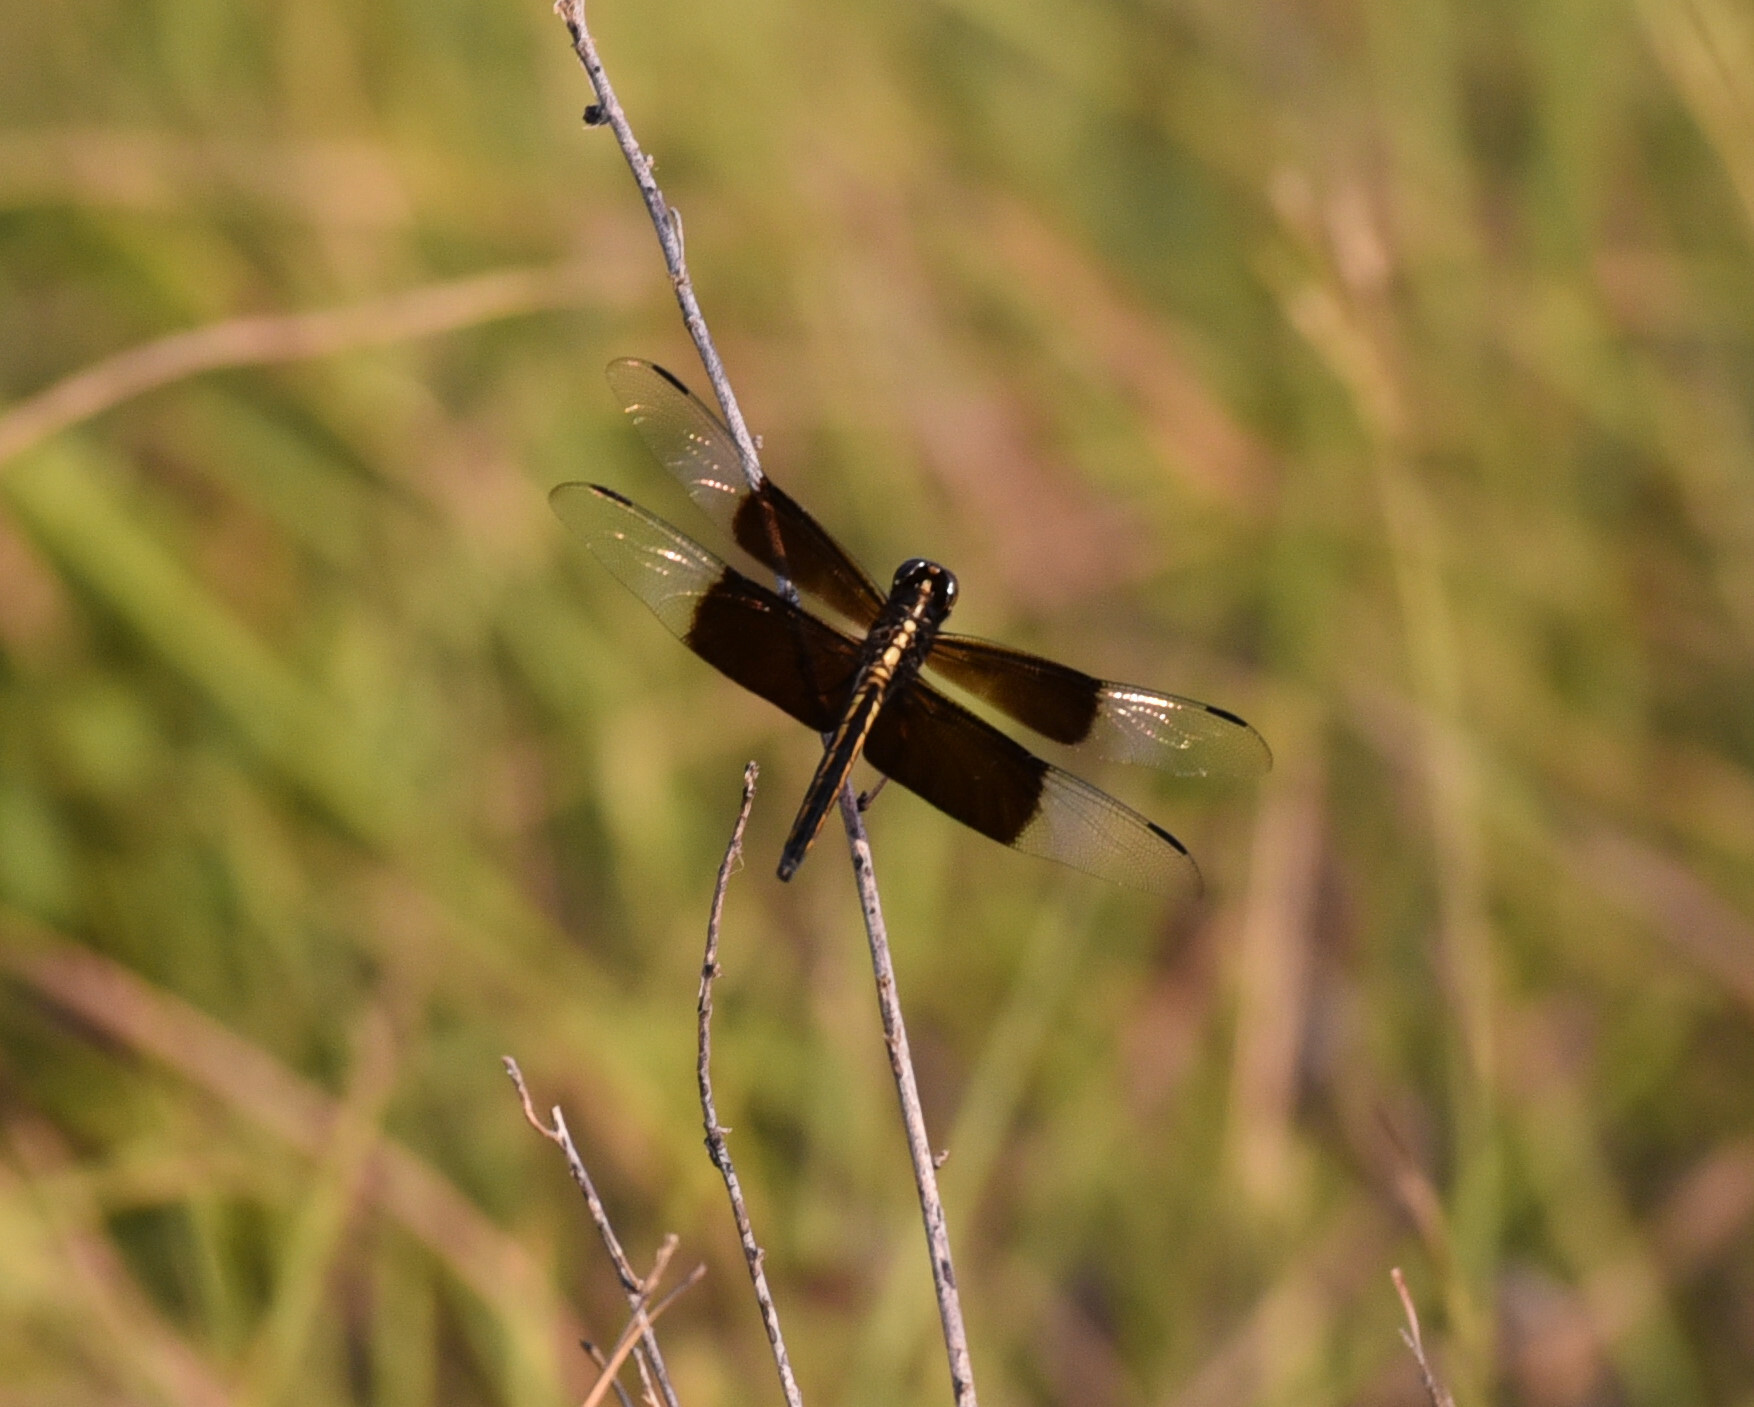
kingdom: Animalia
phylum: Arthropoda
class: Insecta
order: Odonata
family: Libellulidae
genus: Libellula
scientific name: Libellula luctuosa
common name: Widow skimmer
